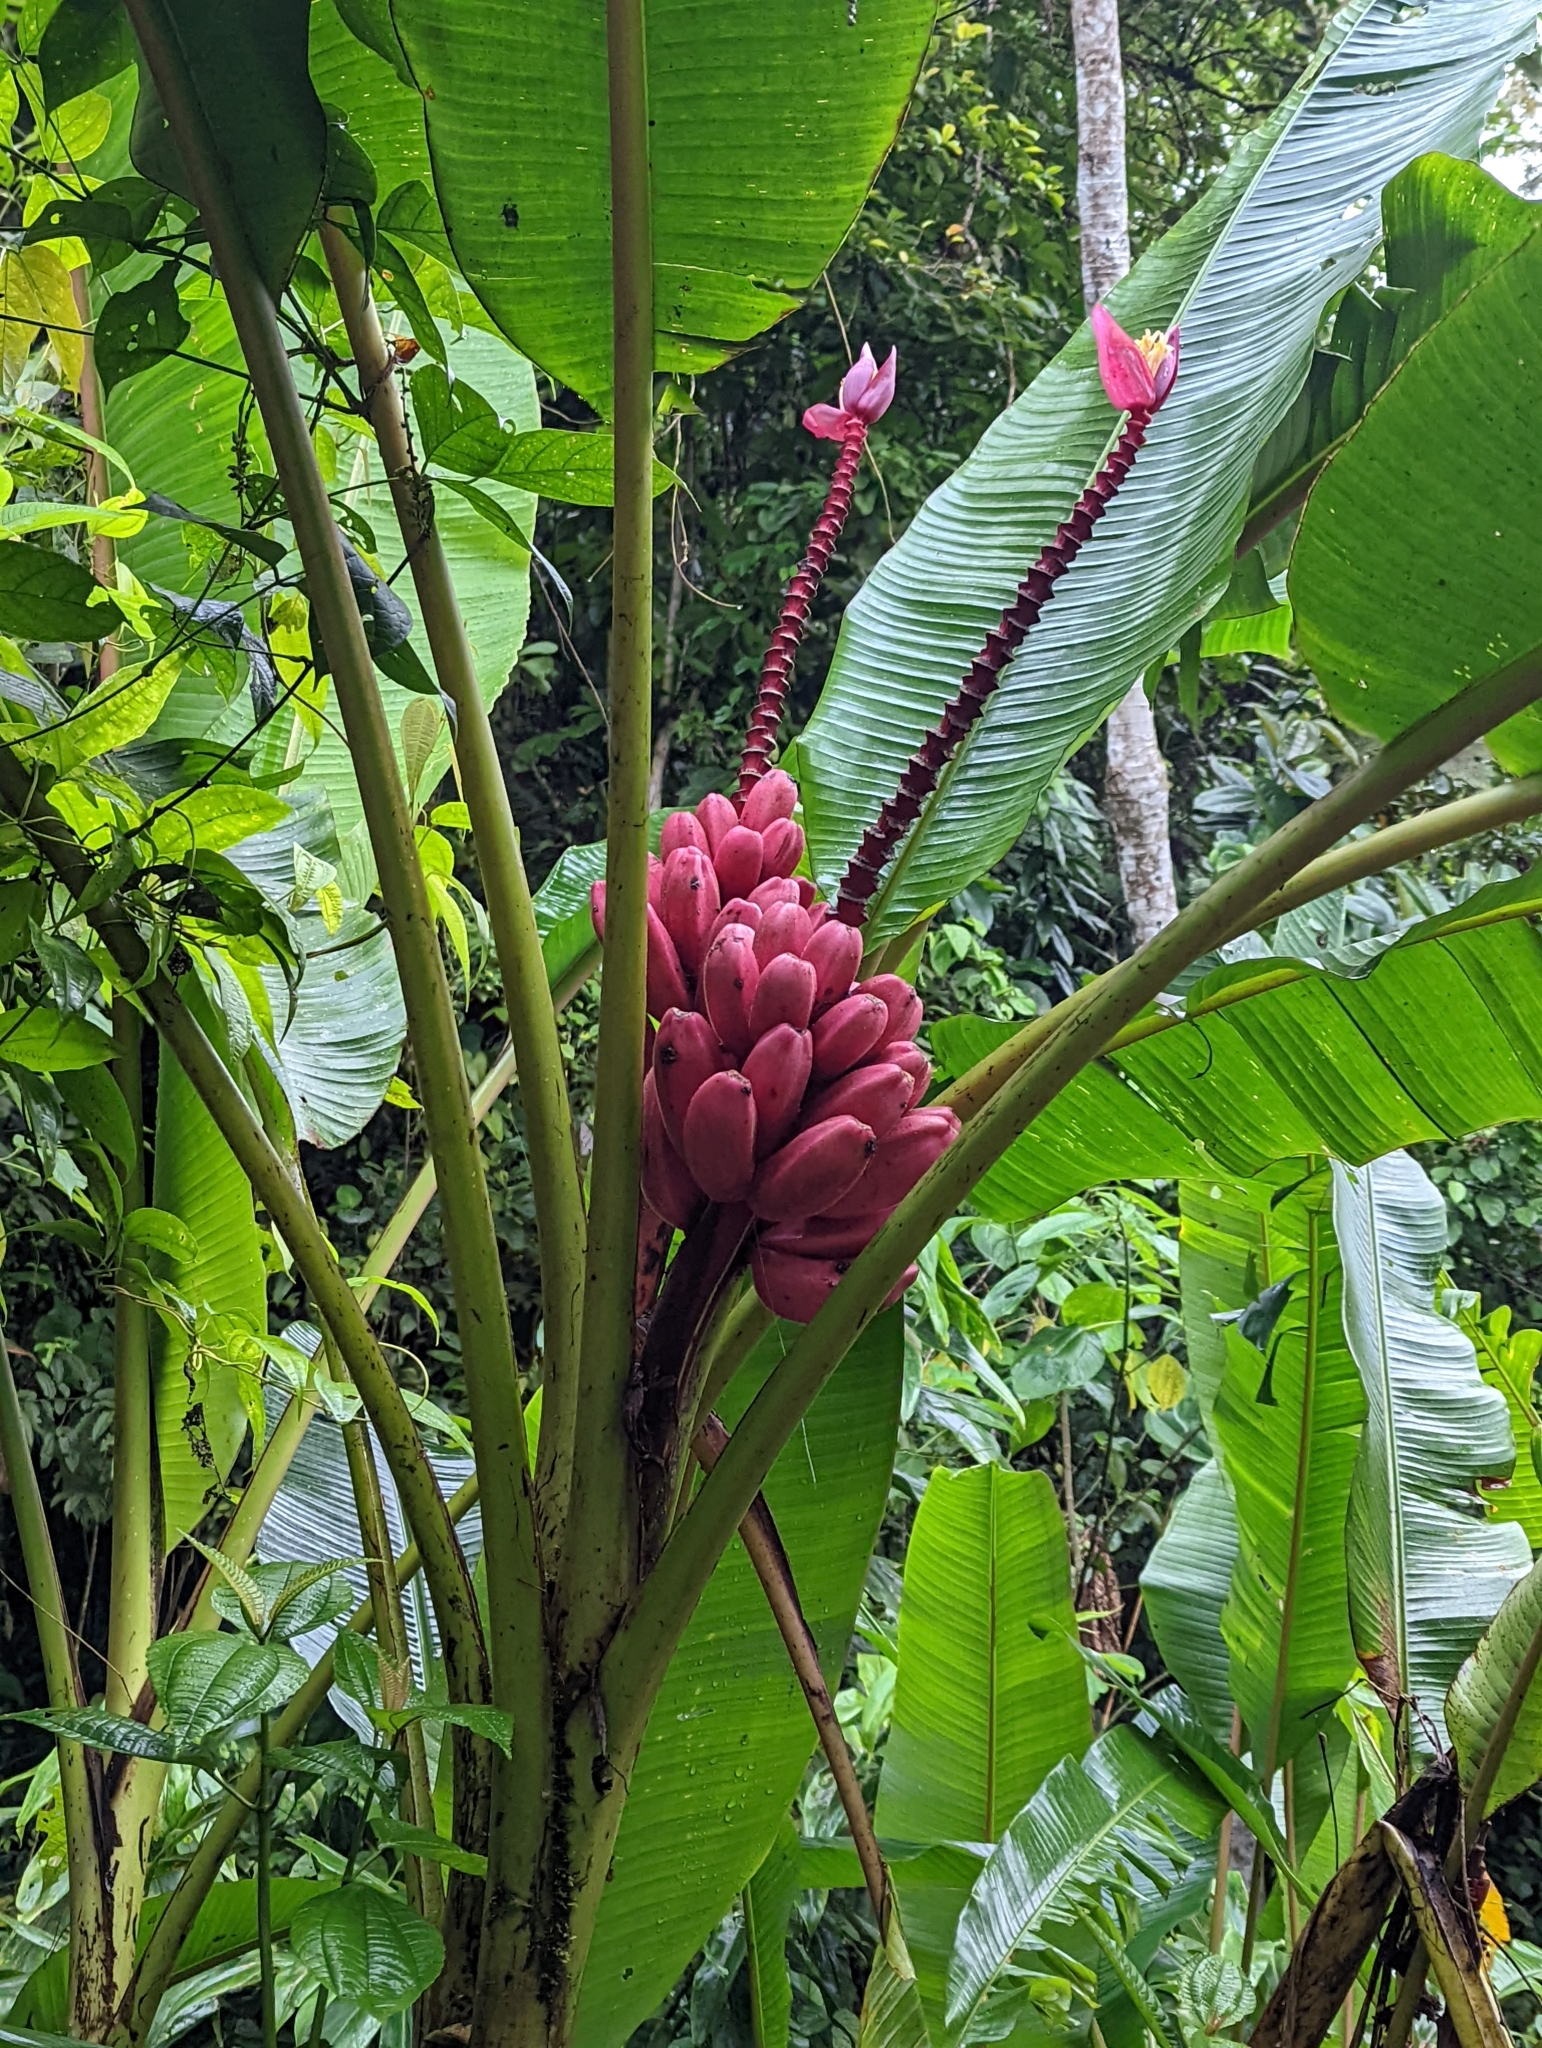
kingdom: Plantae
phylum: Tracheophyta
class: Liliopsida
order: Zingiberales
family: Musaceae
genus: Musa
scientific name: Musa velutina
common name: Pink velvet banana
